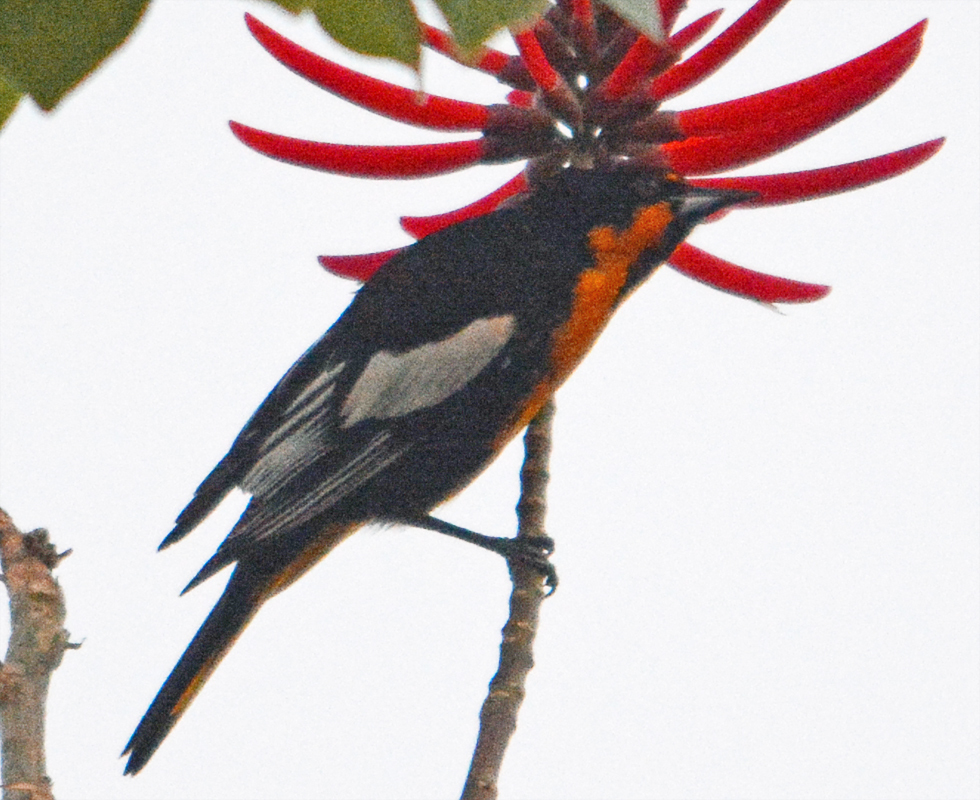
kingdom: Animalia
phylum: Chordata
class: Aves
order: Passeriformes
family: Icteridae
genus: Icterus
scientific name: Icterus abeillei
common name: Black-backed oriole
